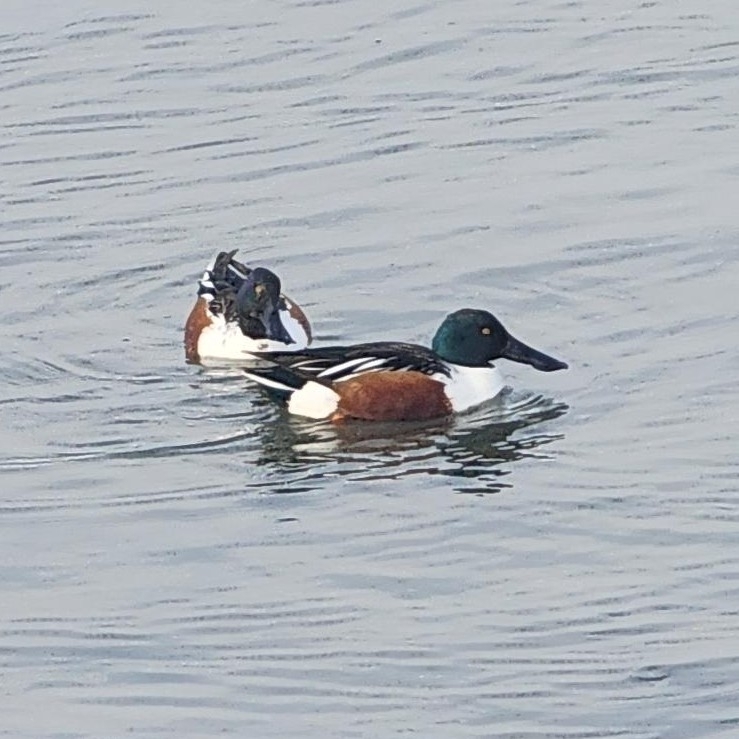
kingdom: Animalia
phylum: Chordata
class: Aves
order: Anseriformes
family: Anatidae
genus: Spatula
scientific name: Spatula clypeata
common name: Northern shoveler
